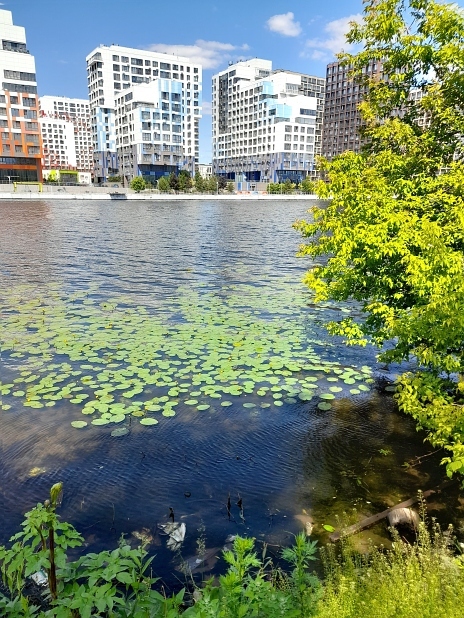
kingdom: Plantae
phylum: Tracheophyta
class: Magnoliopsida
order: Nymphaeales
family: Nymphaeaceae
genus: Nuphar
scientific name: Nuphar lutea
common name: Yellow water-lily
